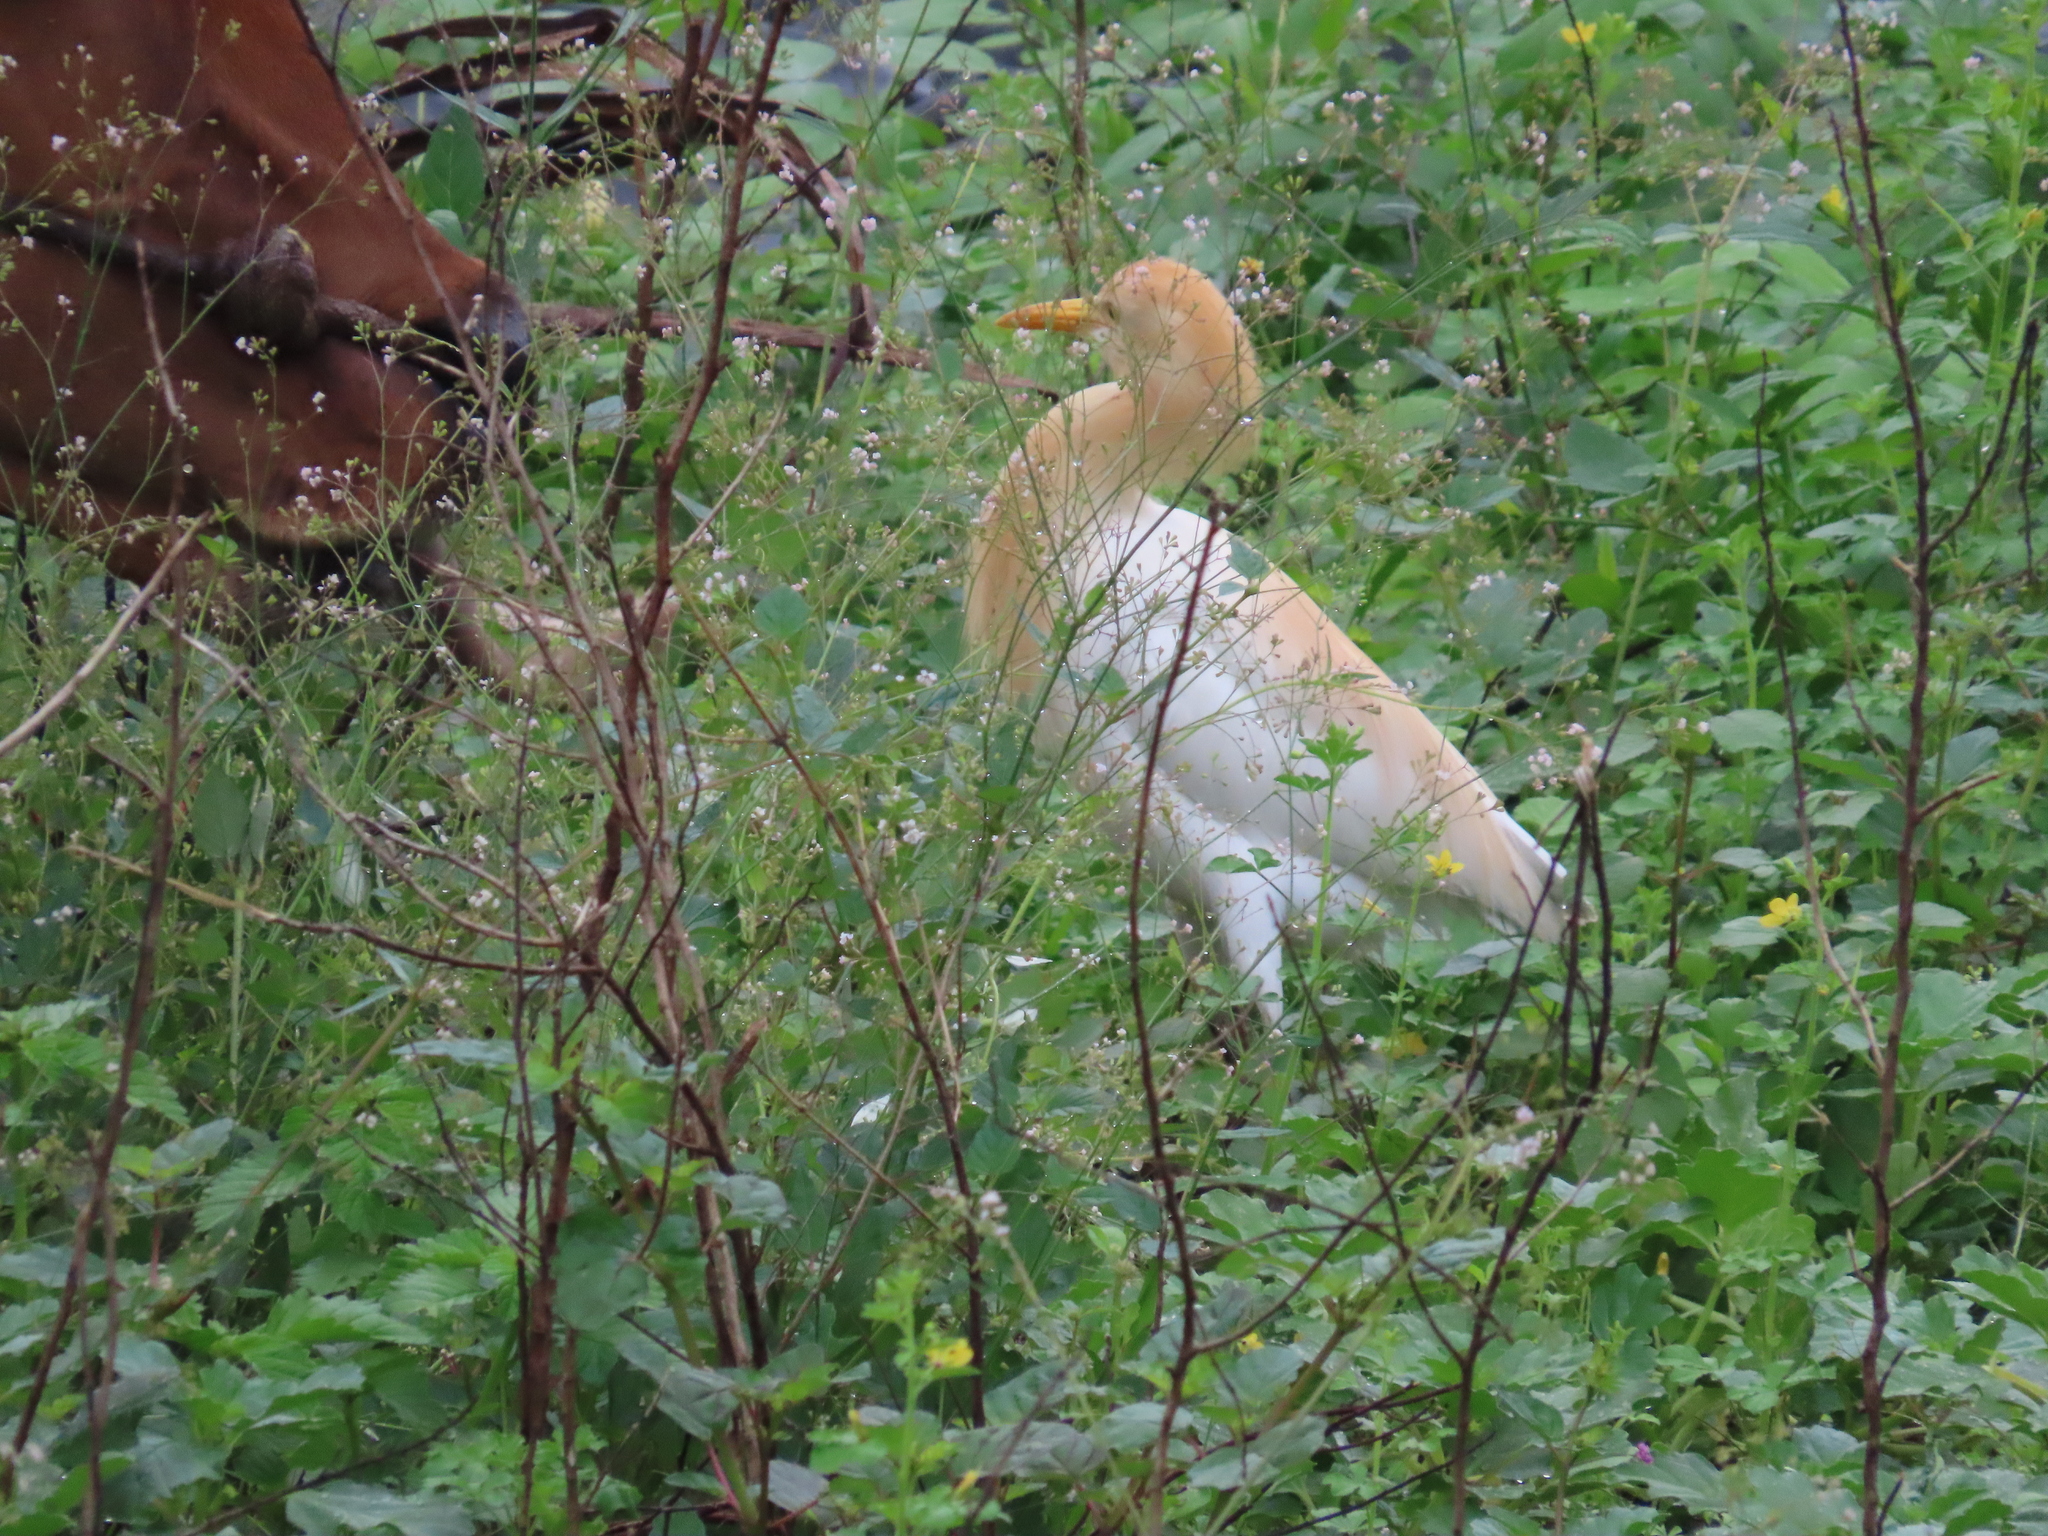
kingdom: Animalia
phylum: Chordata
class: Aves
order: Pelecaniformes
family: Ardeidae
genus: Bubulcus
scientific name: Bubulcus coromandus
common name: Eastern cattle egret
